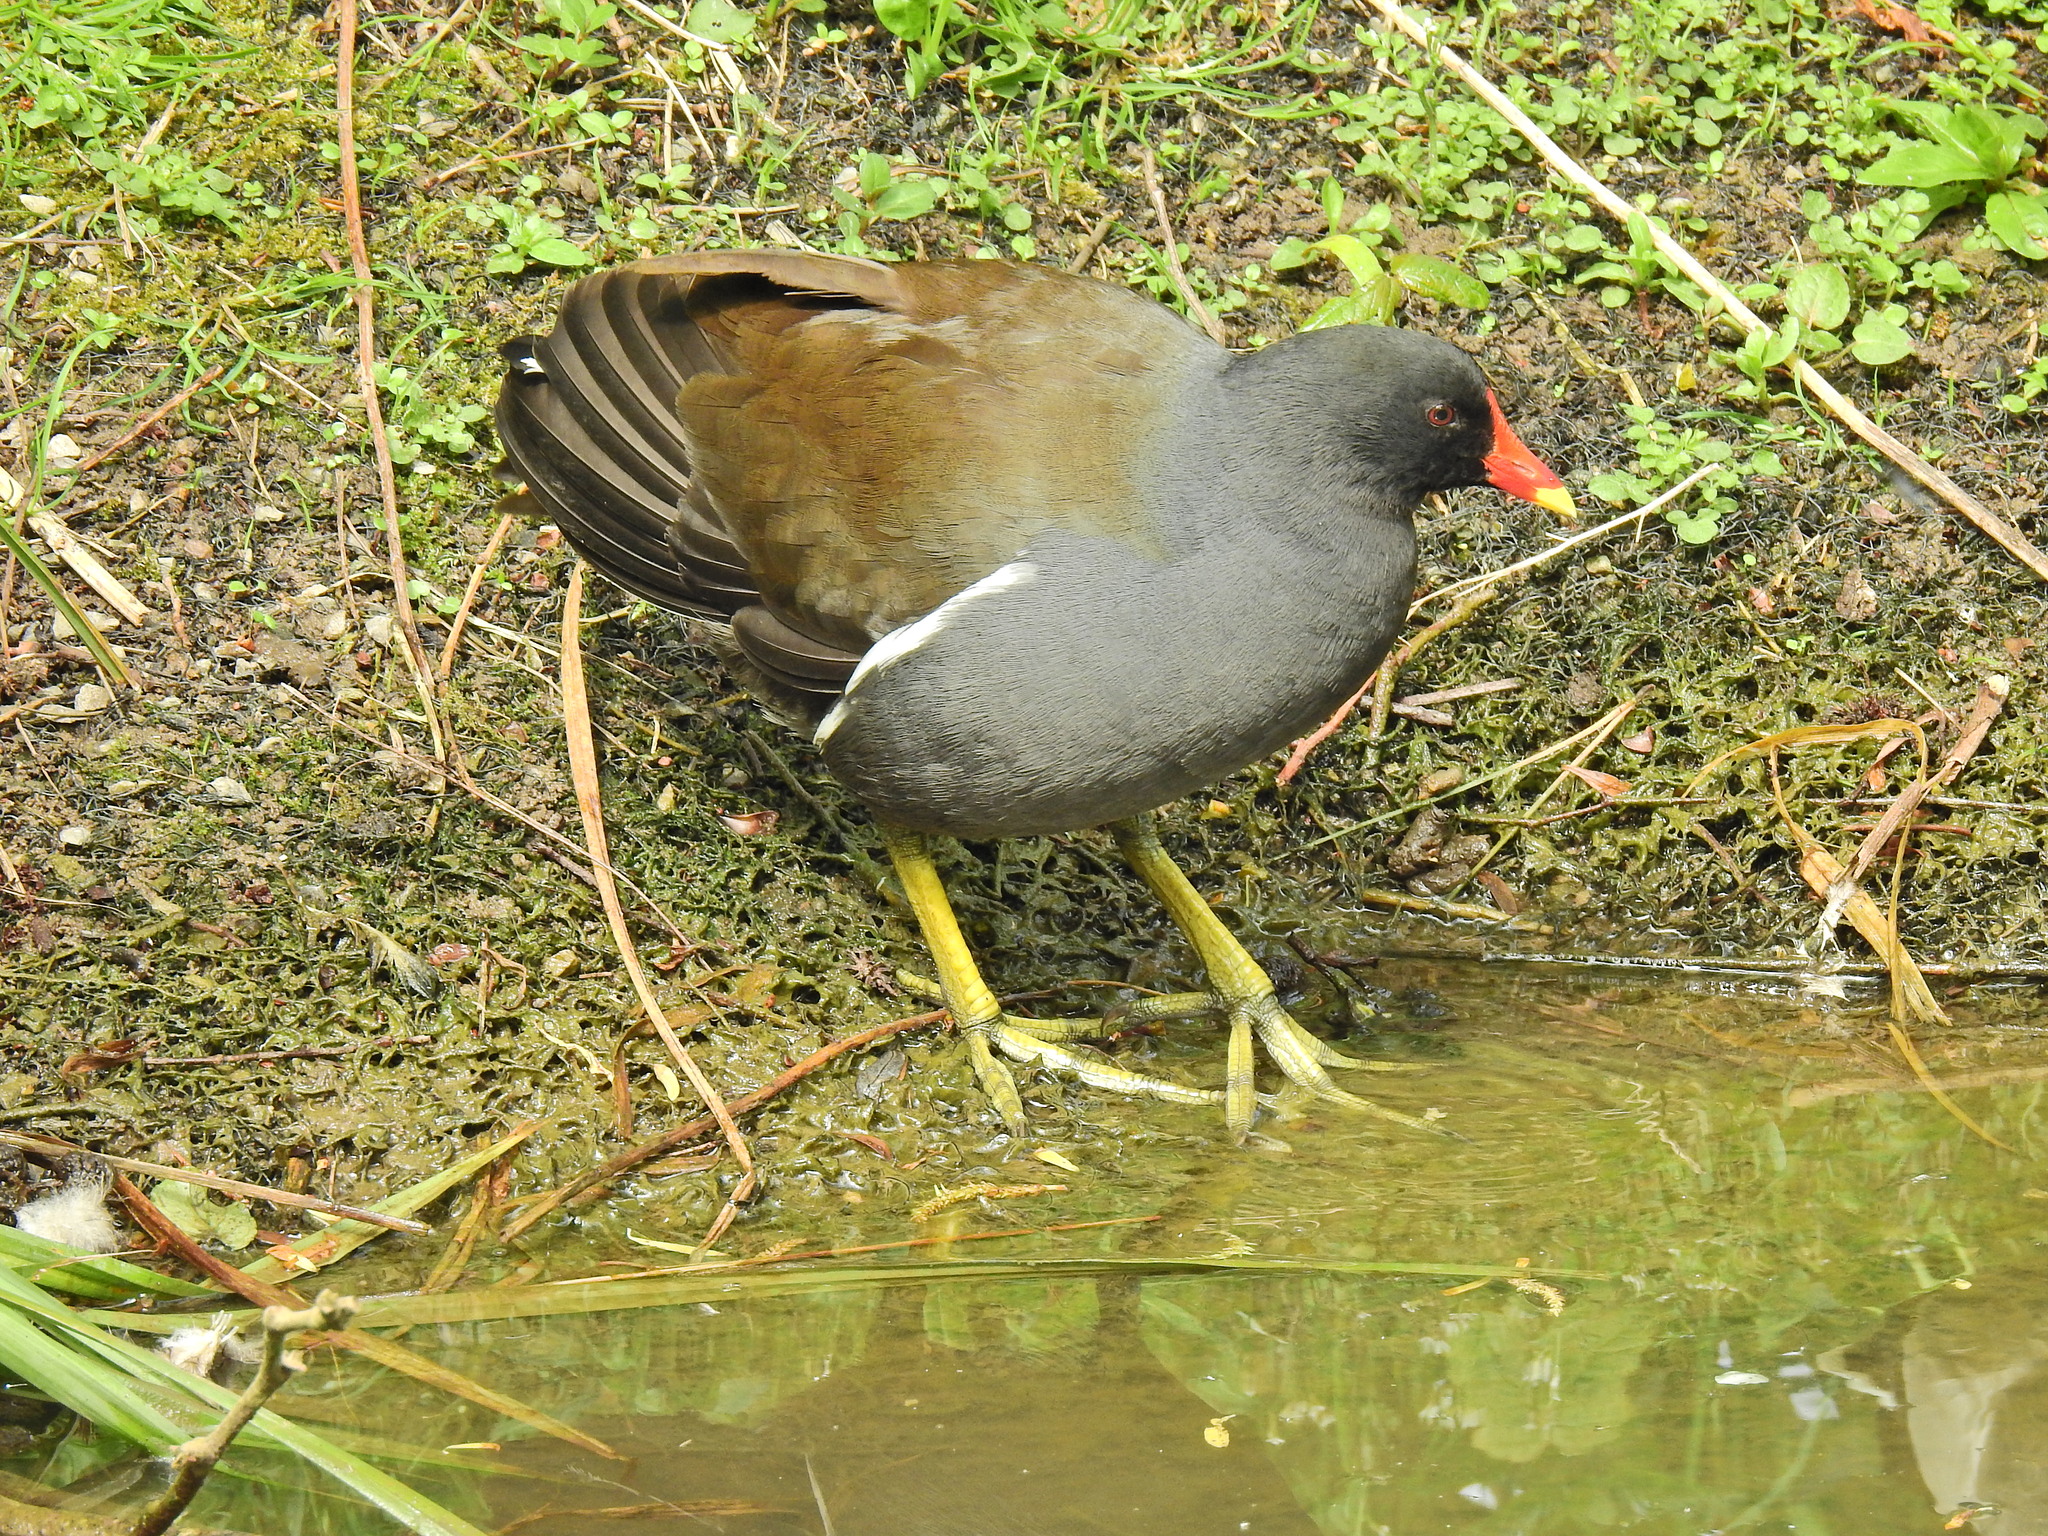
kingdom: Animalia
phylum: Chordata
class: Aves
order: Gruiformes
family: Rallidae
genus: Gallinula
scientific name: Gallinula chloropus
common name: Common moorhen
